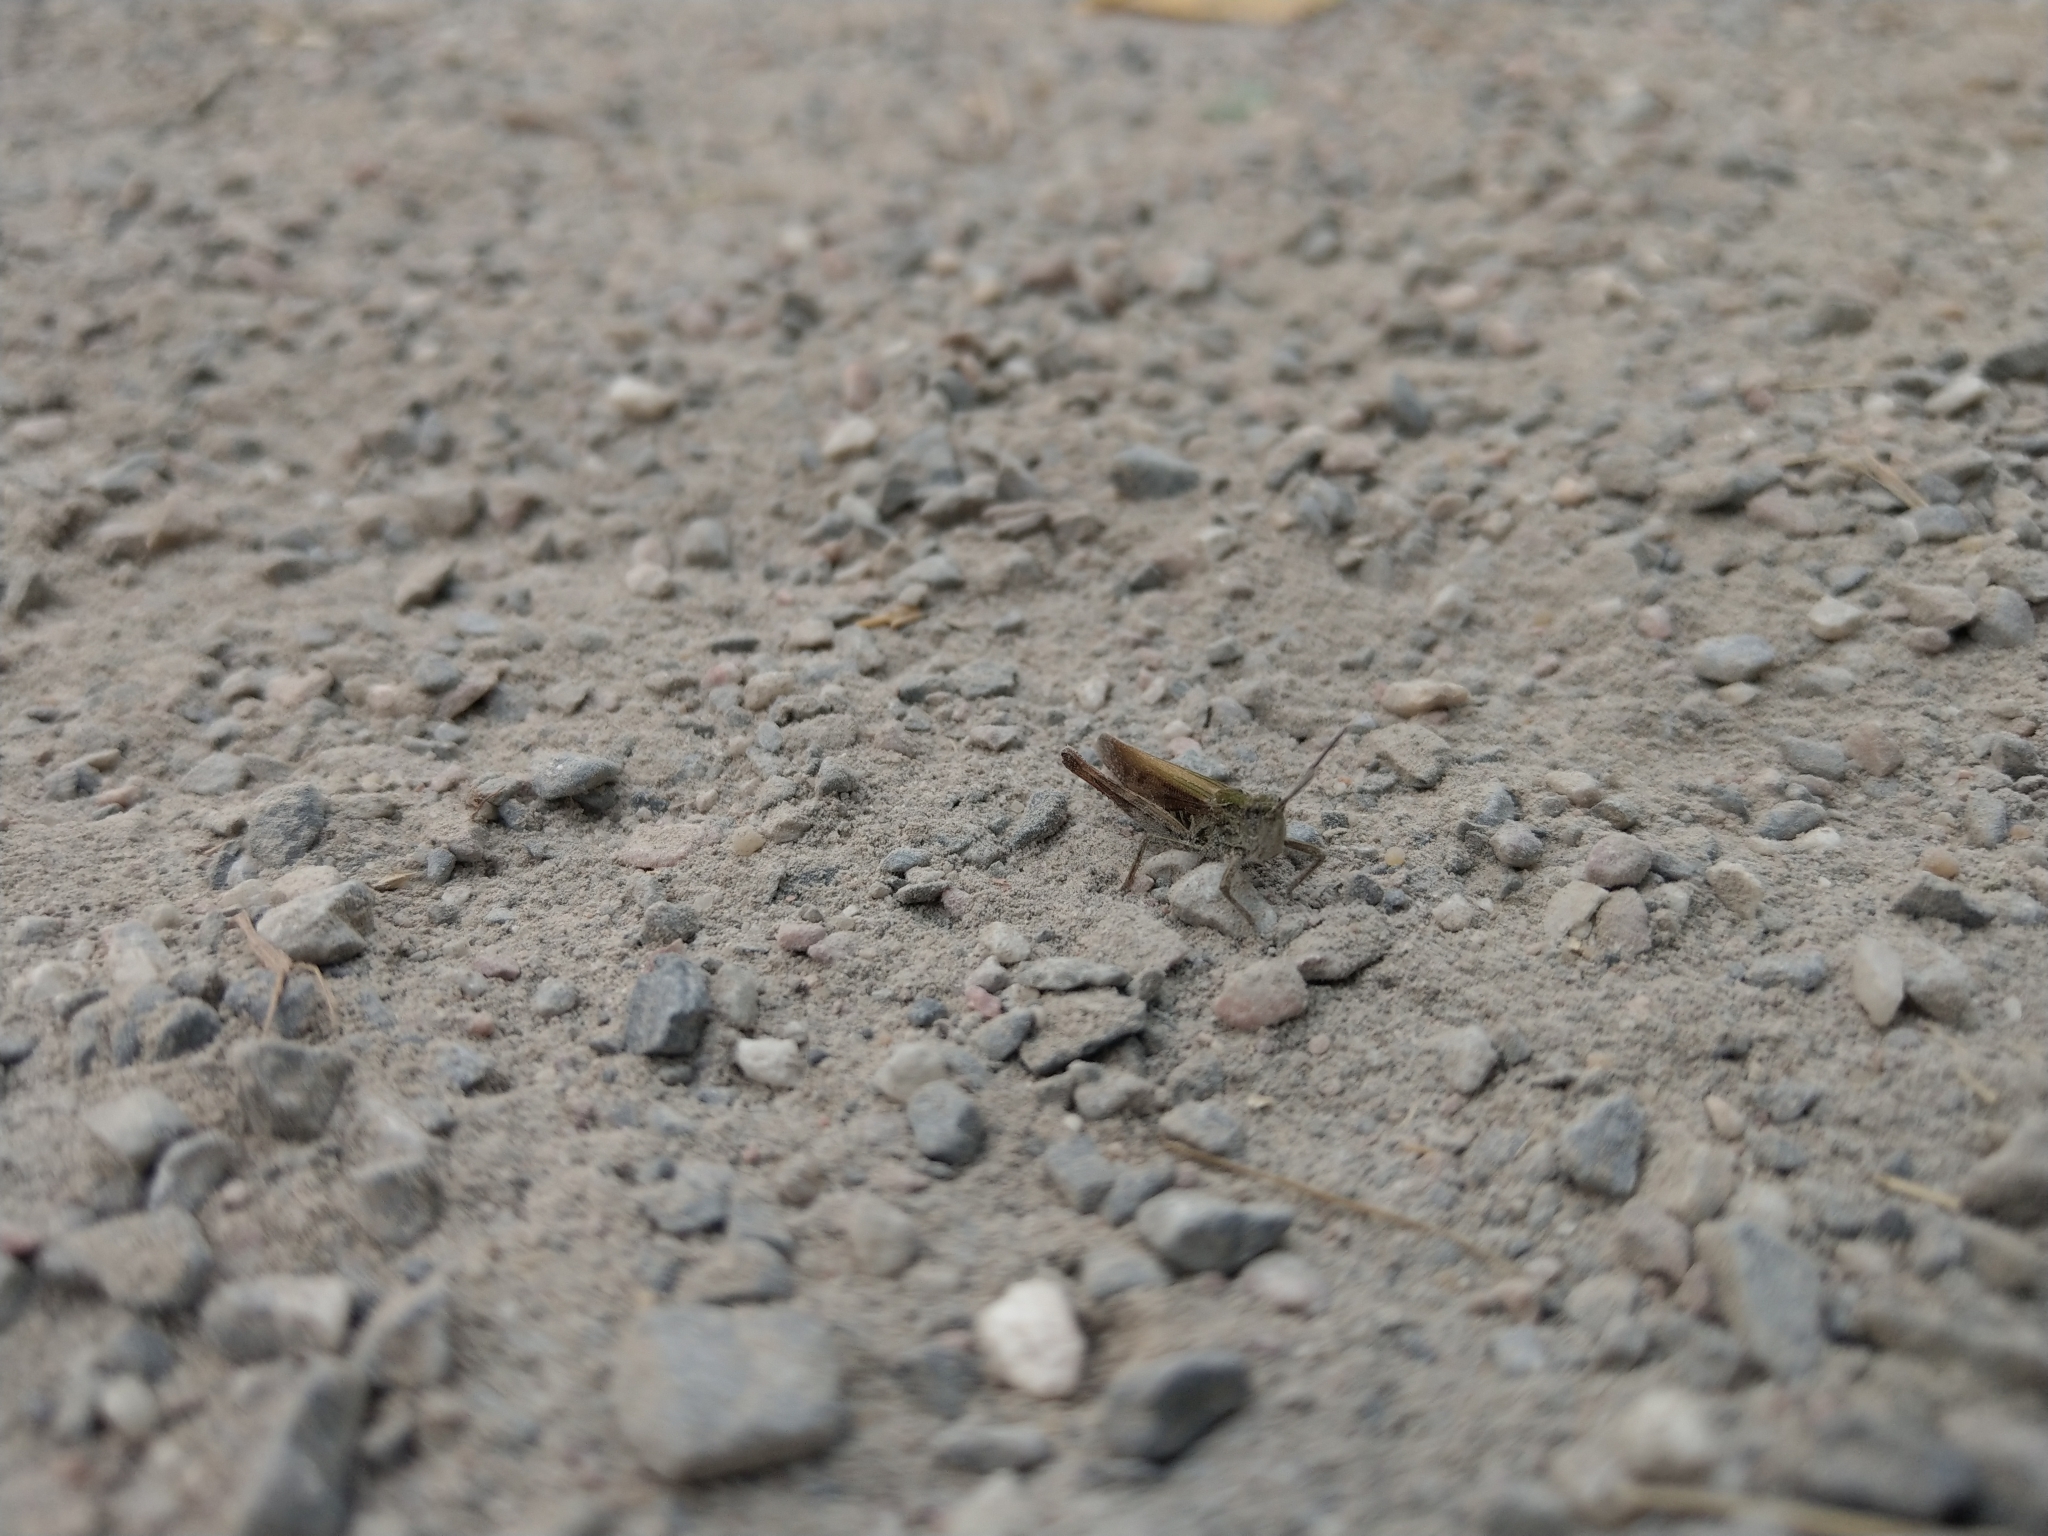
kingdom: Animalia
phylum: Arthropoda
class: Insecta
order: Orthoptera
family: Acrididae
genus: Chorthippus
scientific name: Chorthippus biguttulus
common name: Bow-winged grasshopper
